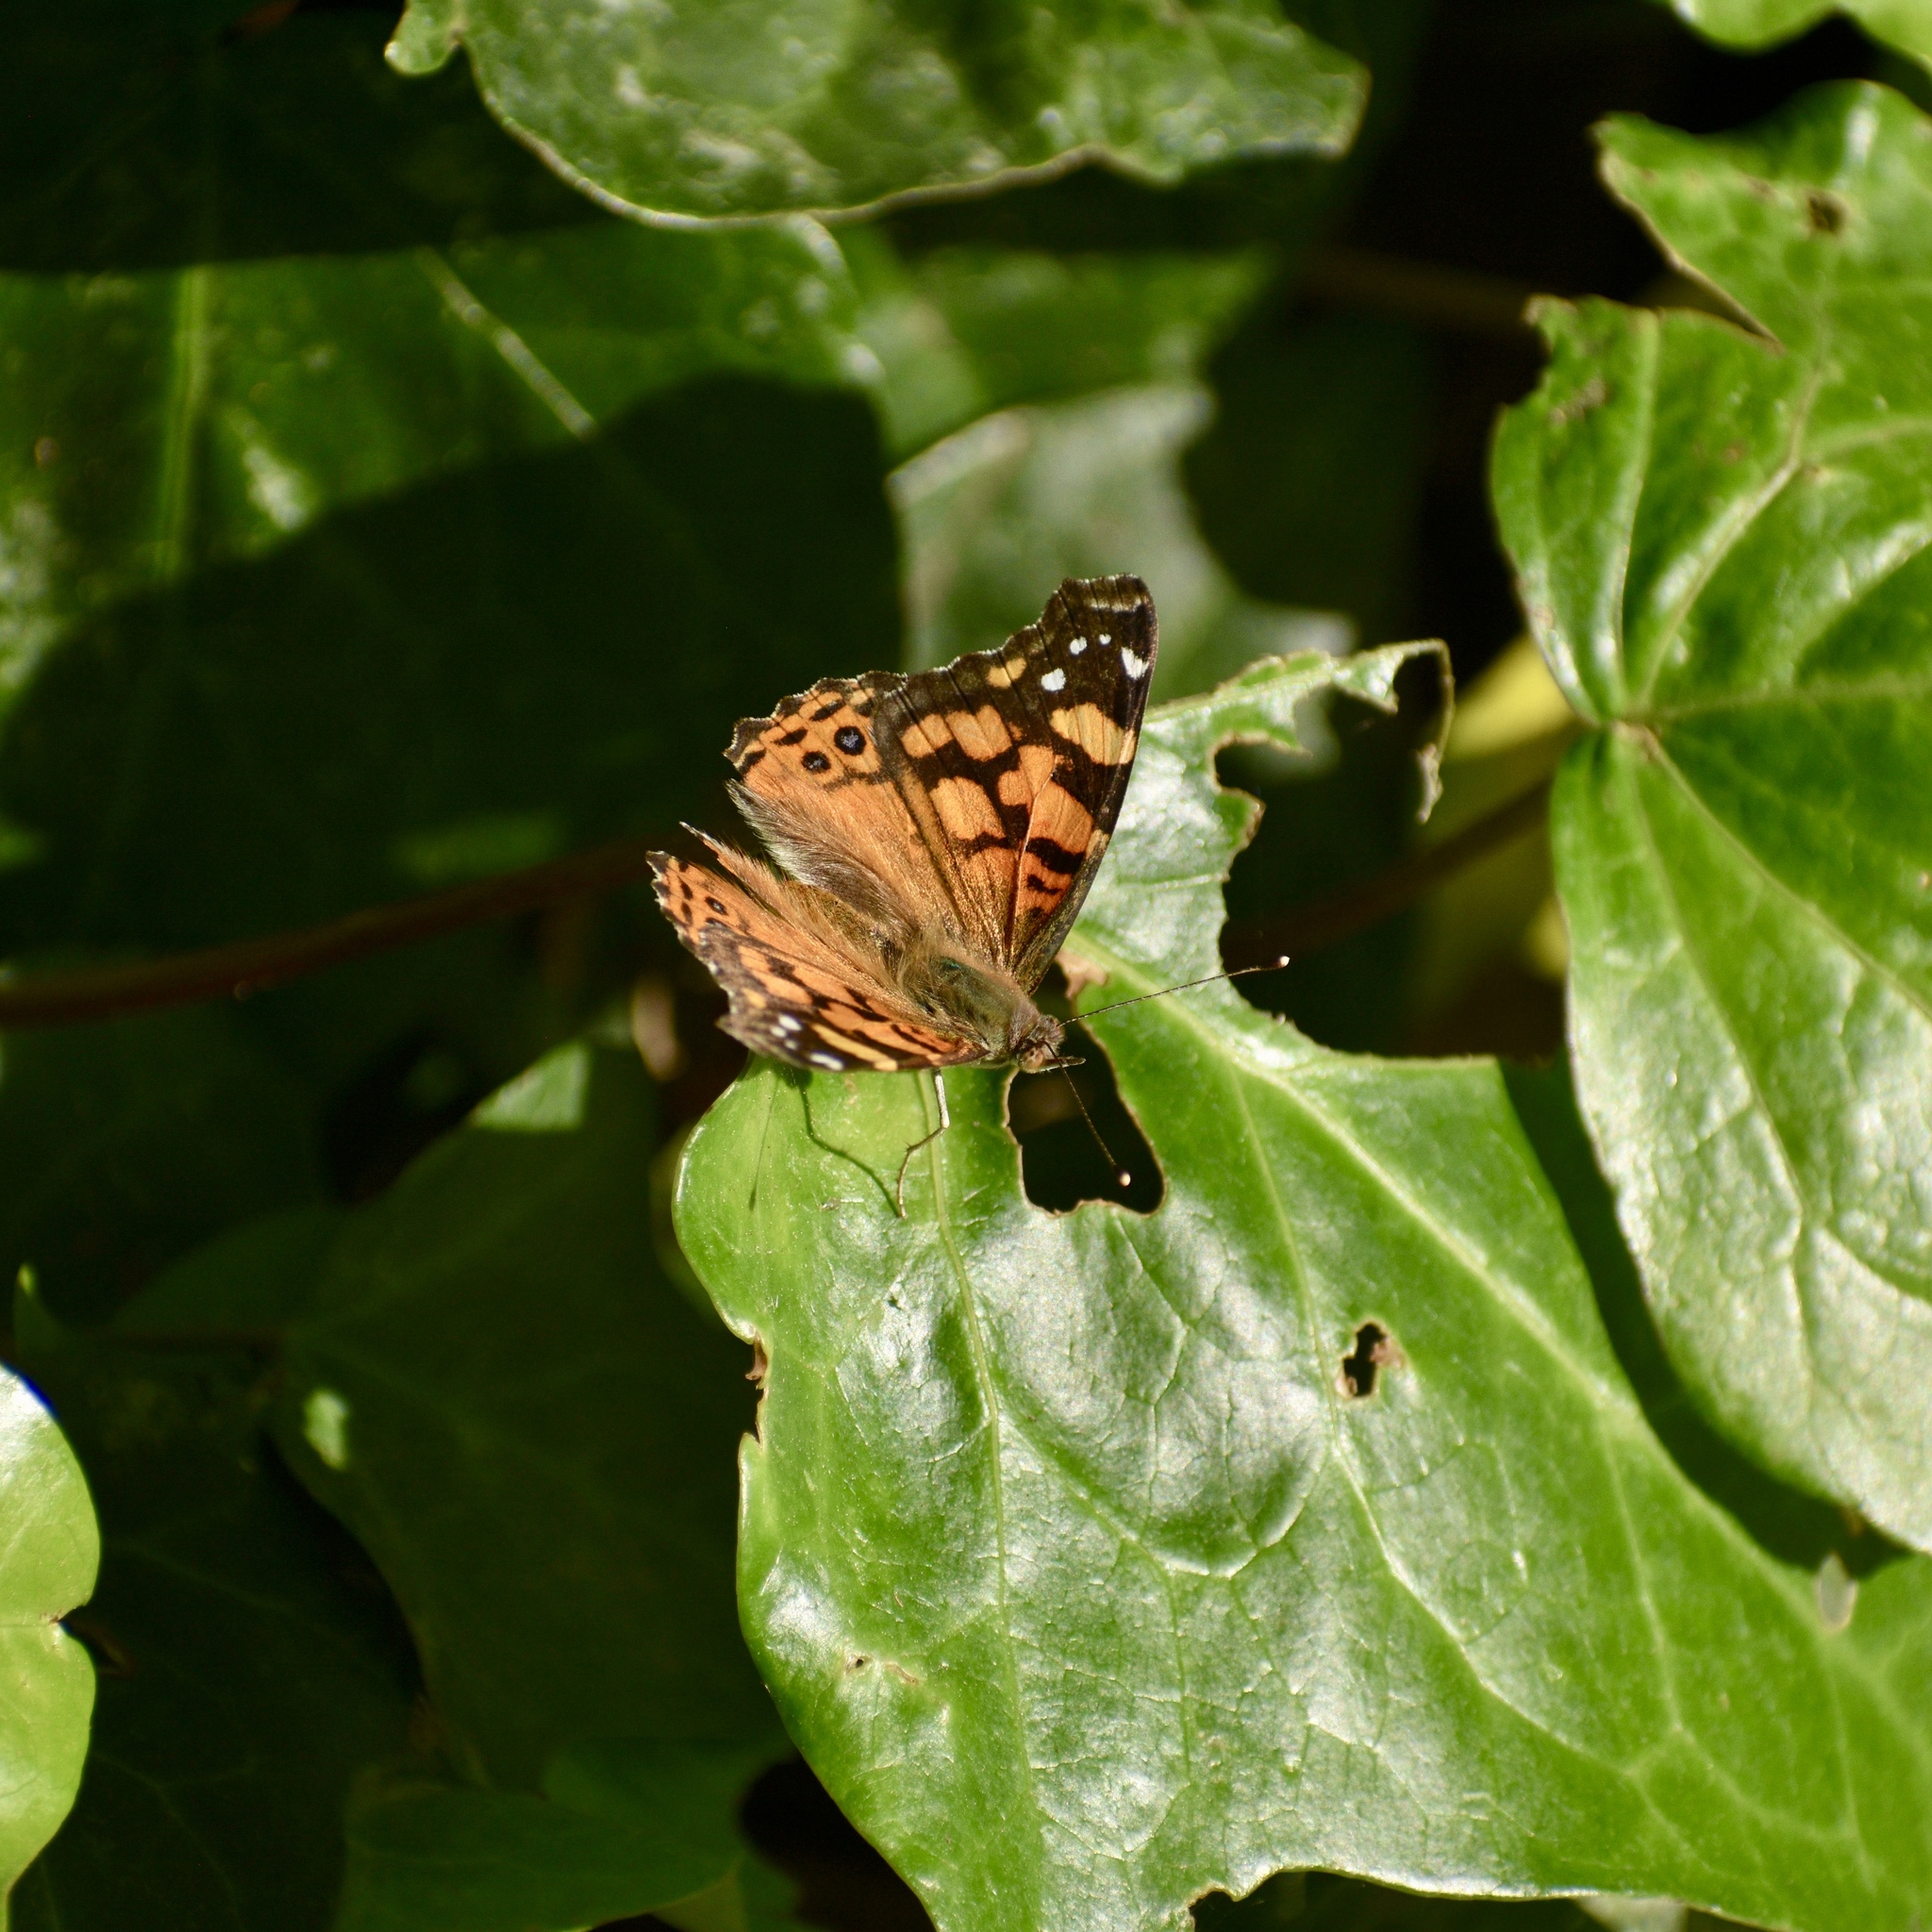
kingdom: Animalia
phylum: Arthropoda
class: Insecta
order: Lepidoptera
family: Nymphalidae
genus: Vanessa
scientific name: Vanessa annabella
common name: West coast lady
